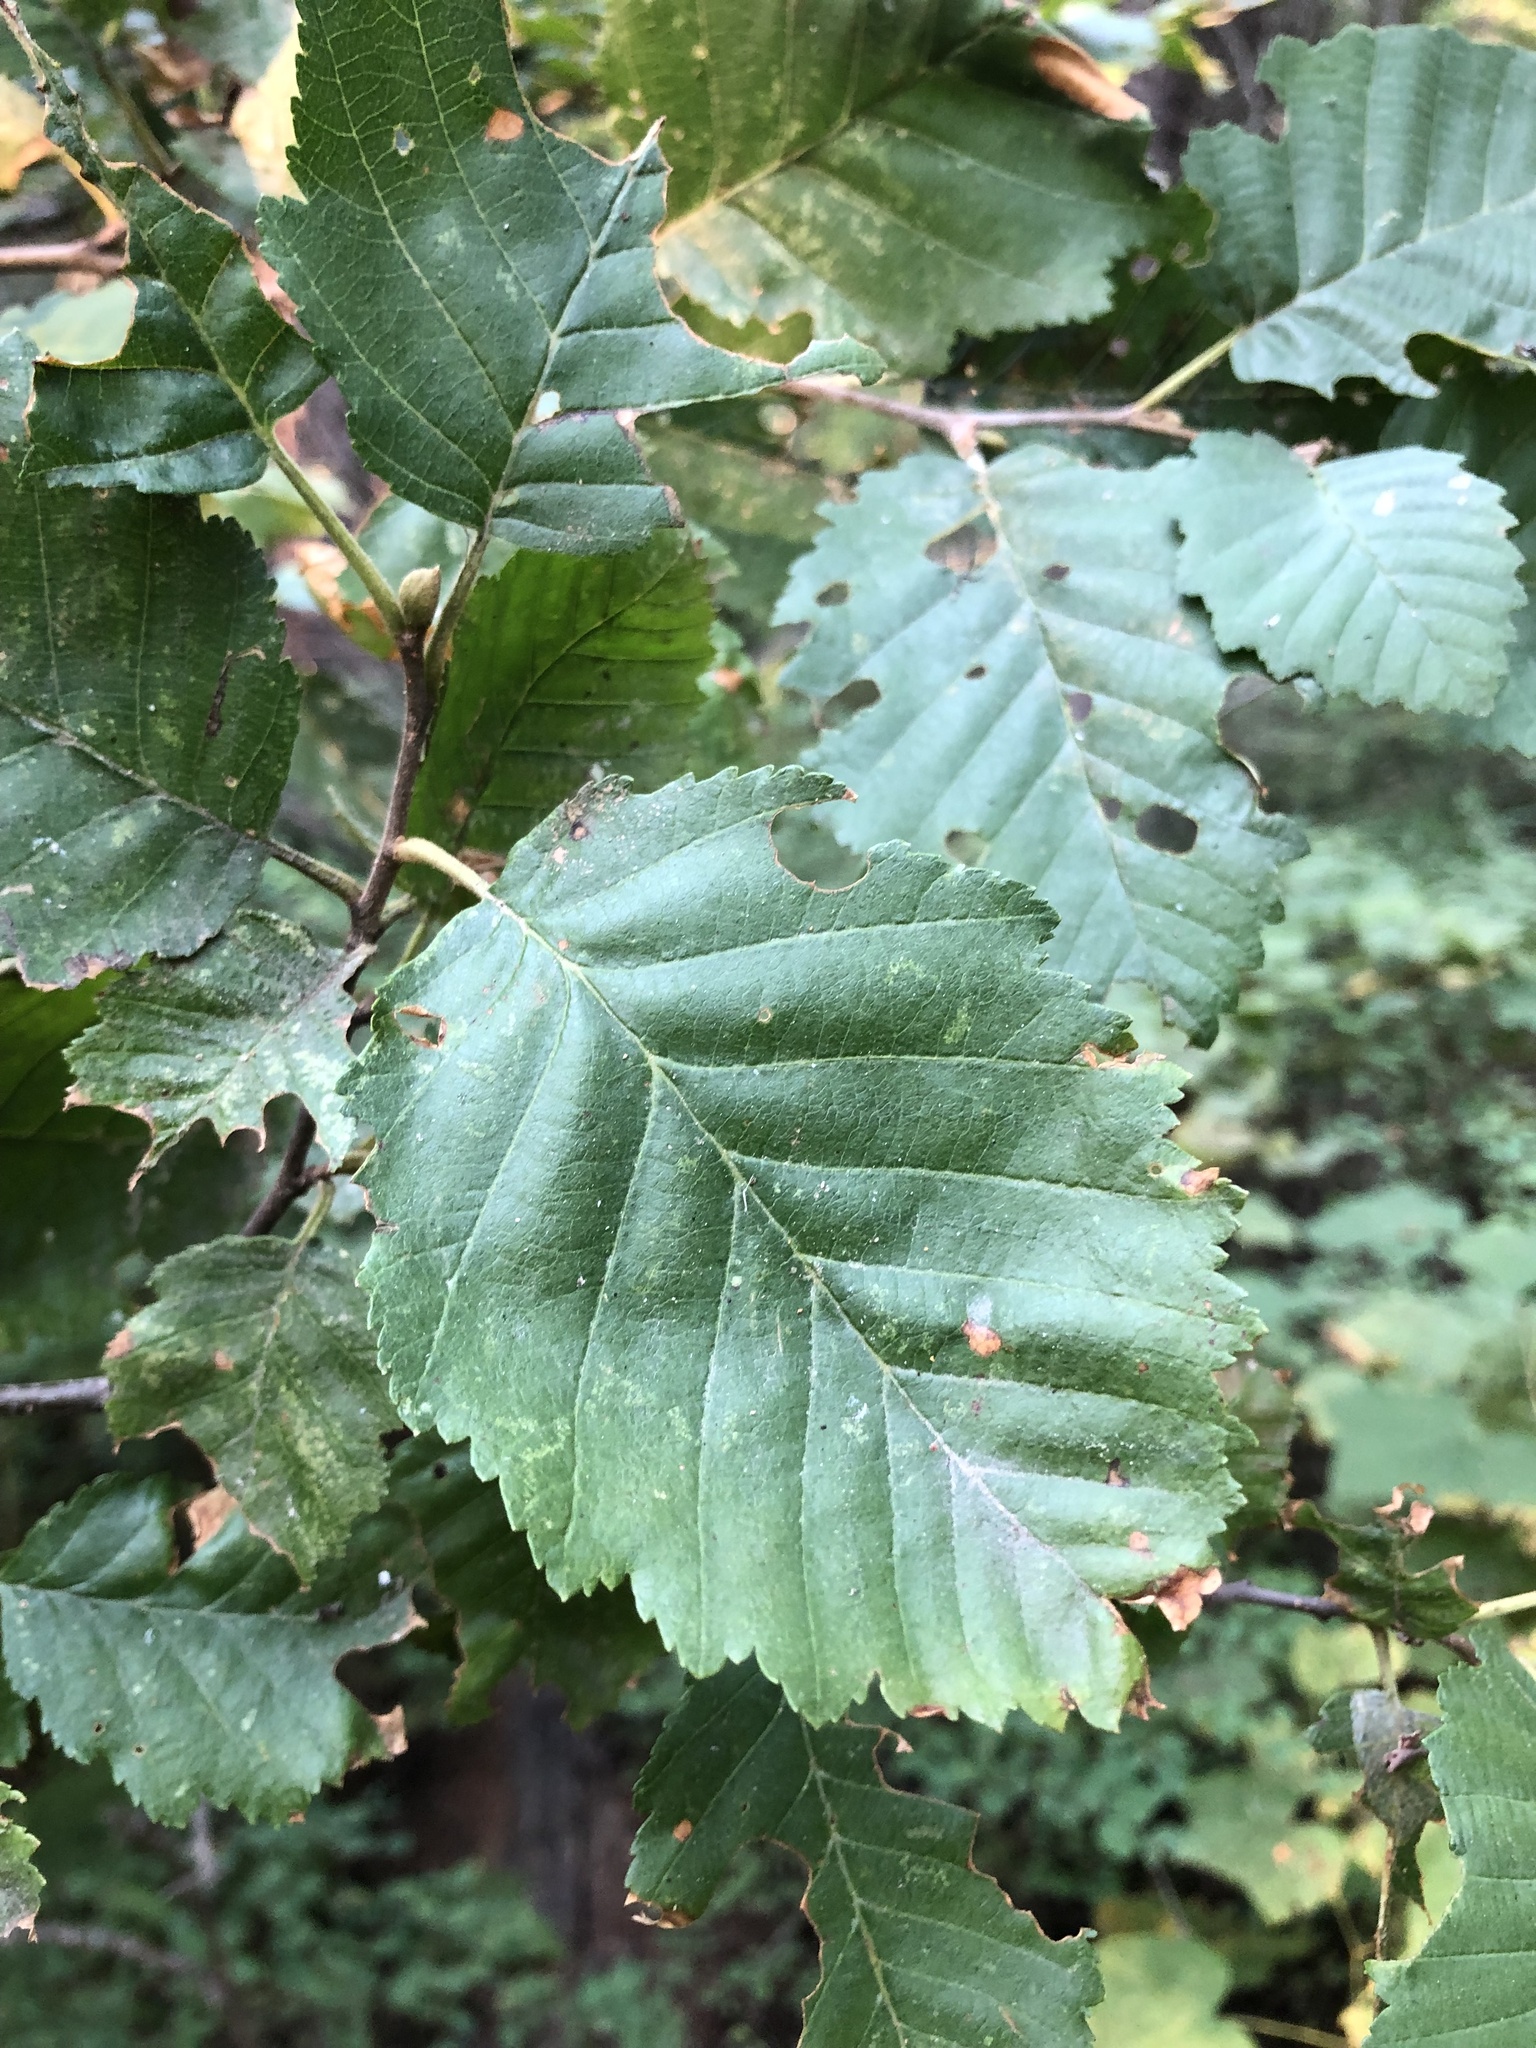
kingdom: Plantae
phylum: Tracheophyta
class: Magnoliopsida
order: Fagales
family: Betulaceae
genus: Alnus
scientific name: Alnus incana
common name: Grey alder
